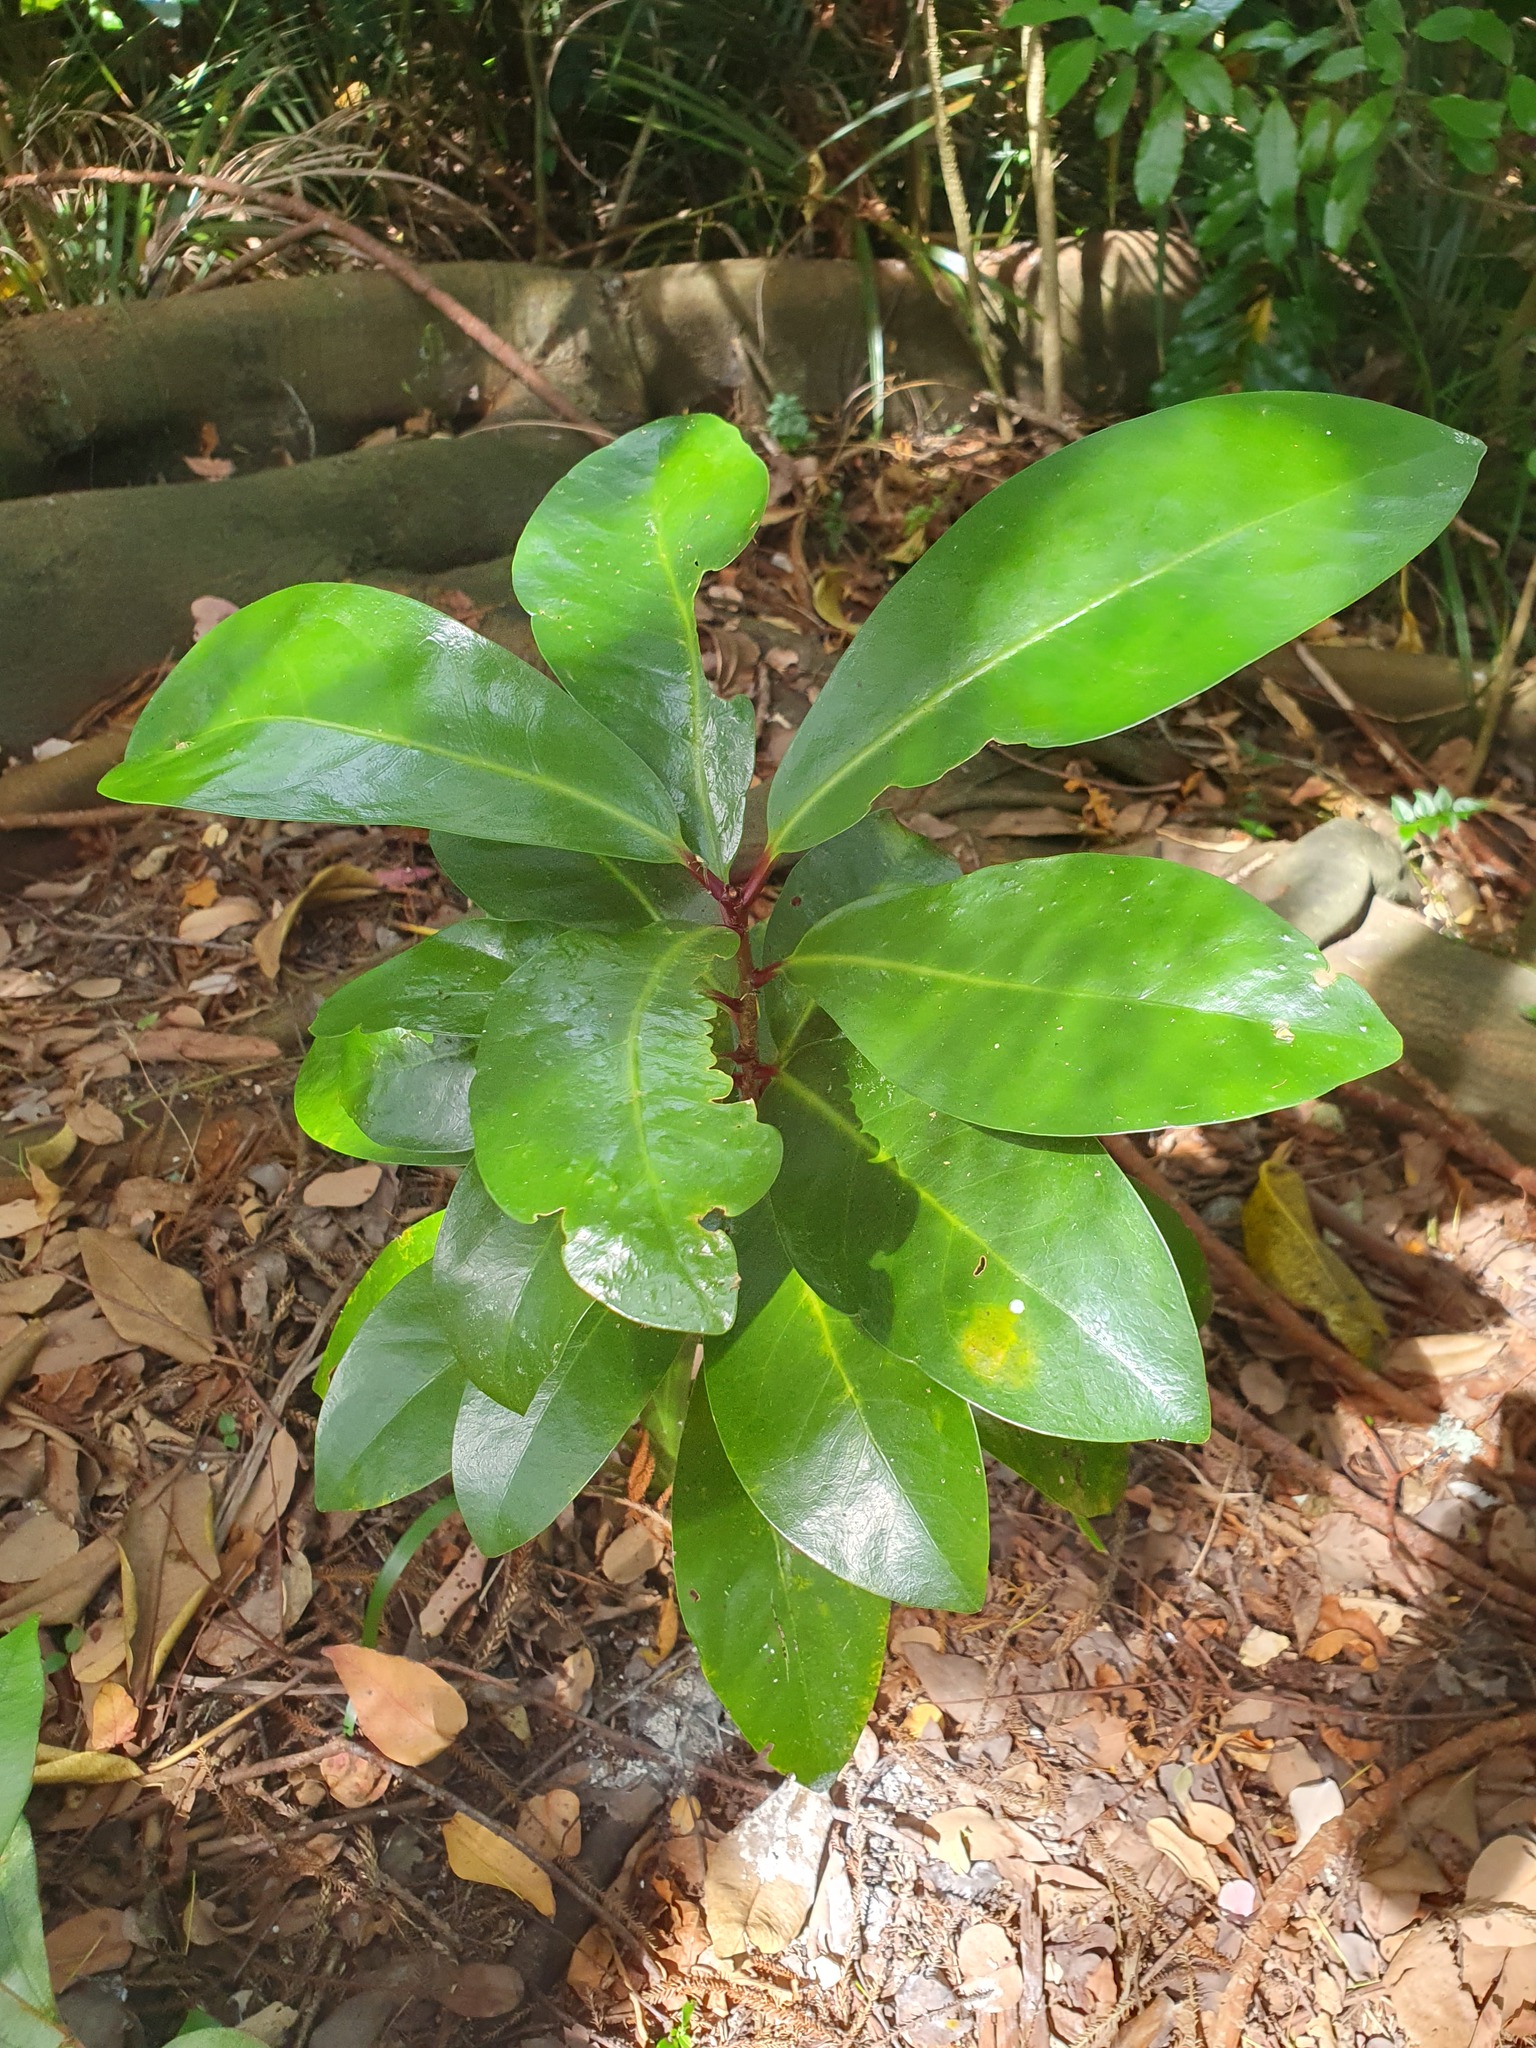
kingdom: Plantae
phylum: Tracheophyta
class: Magnoliopsida
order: Cucurbitales
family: Corynocarpaceae
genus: Corynocarpus
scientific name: Corynocarpus laevigatus
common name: New zealand laurel
